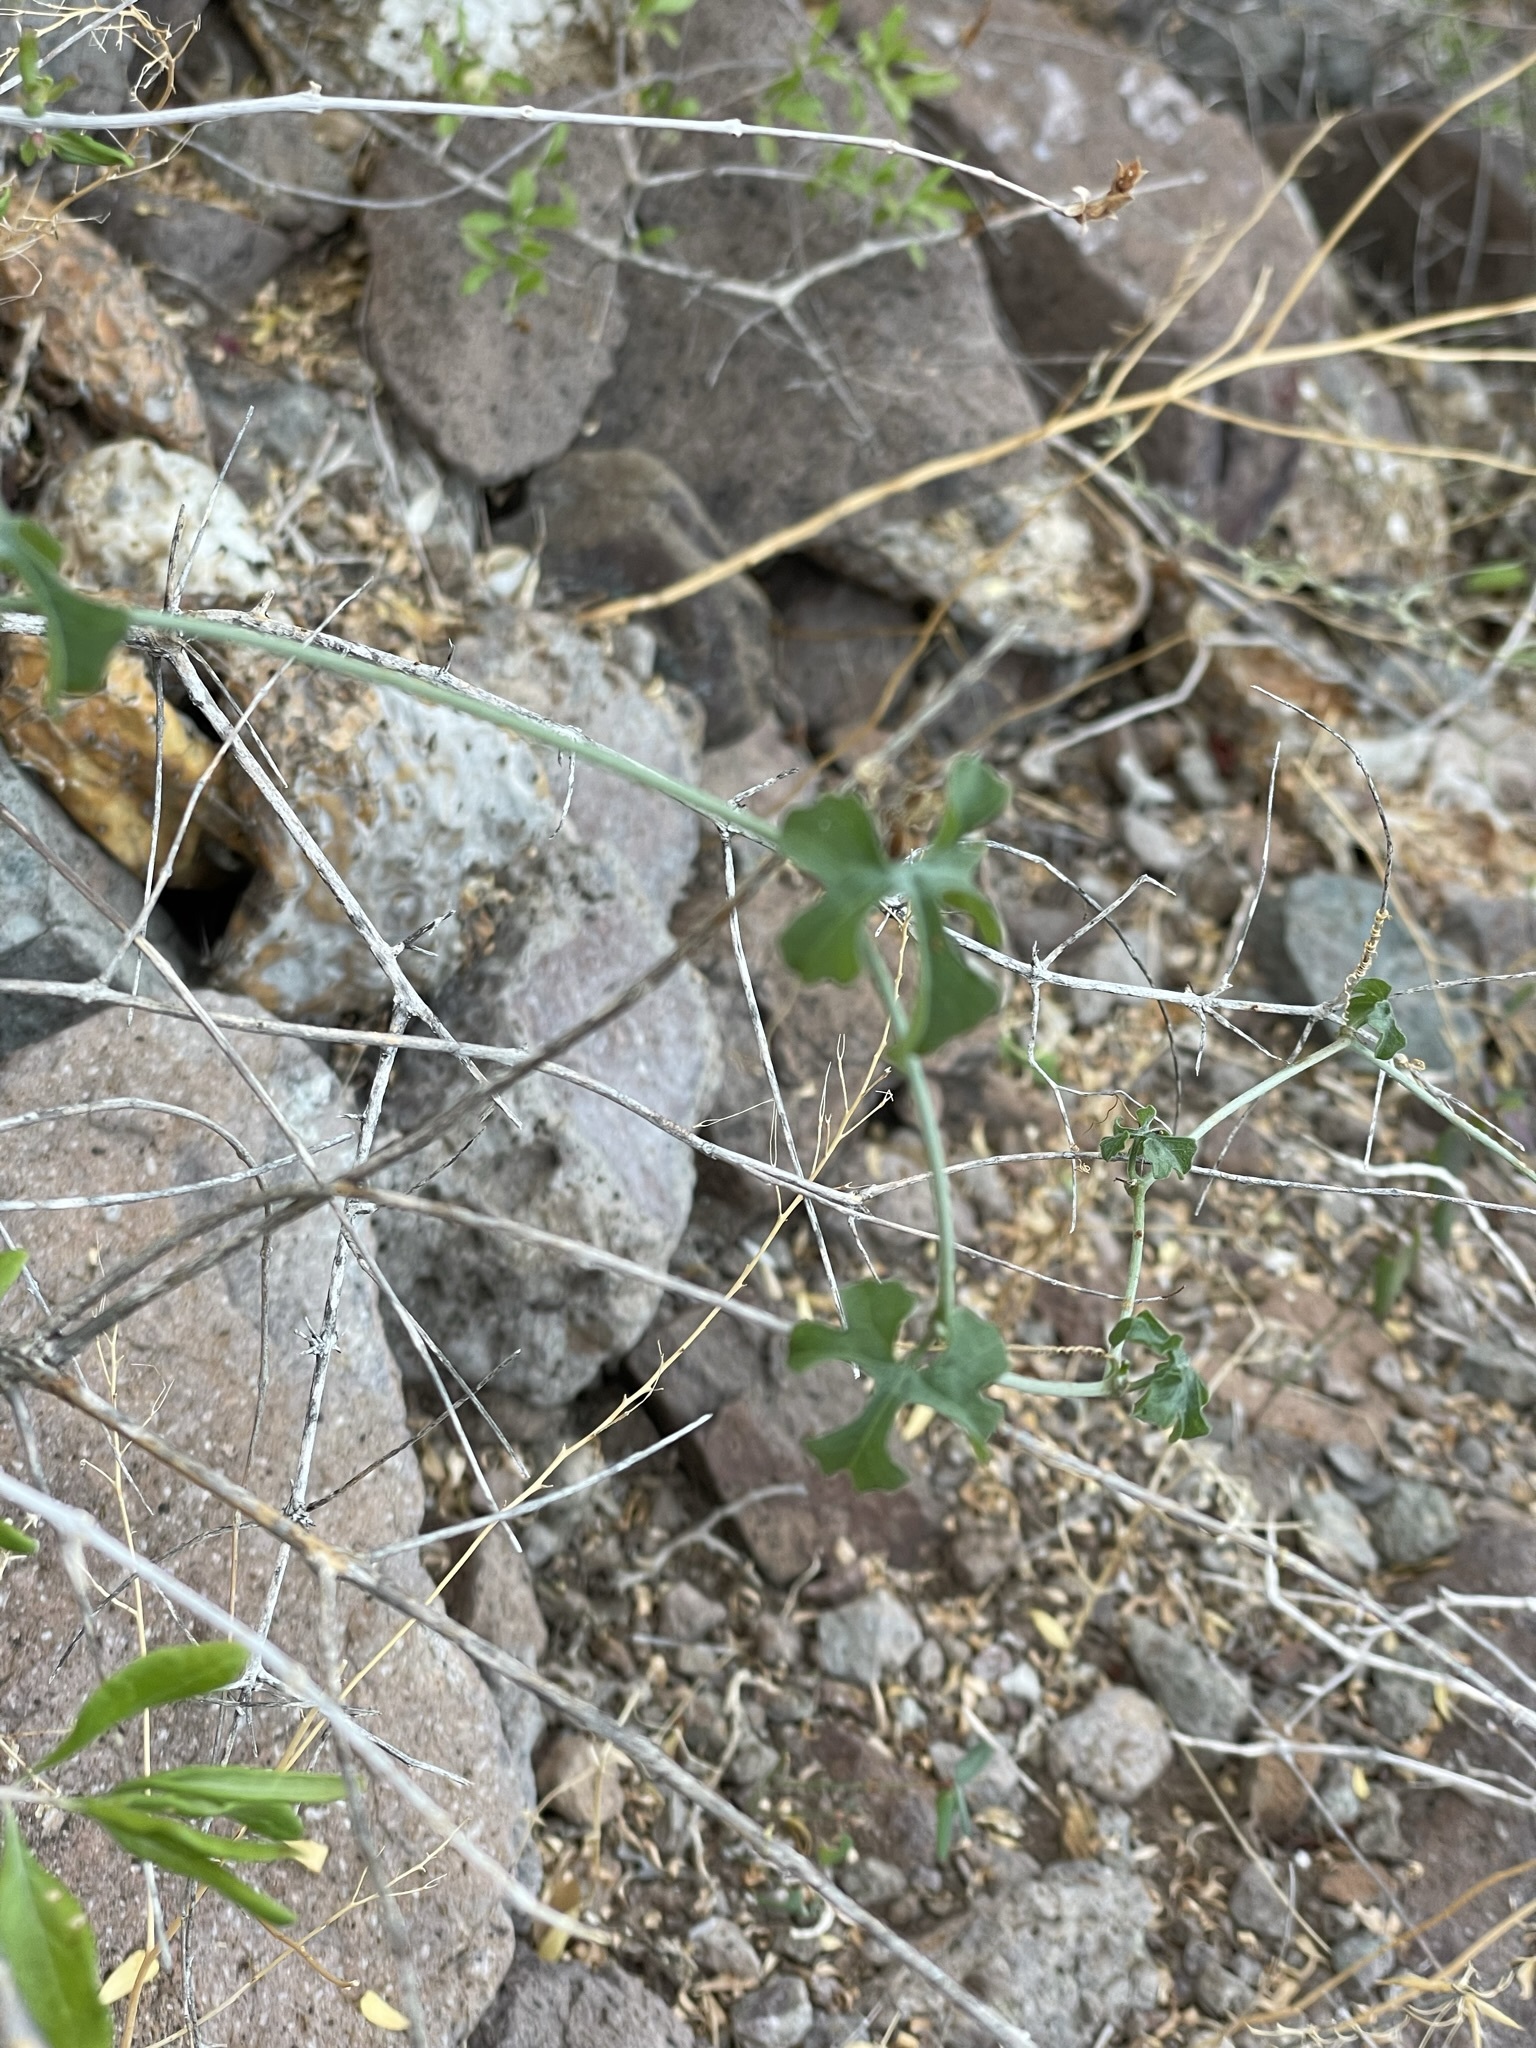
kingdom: Plantae
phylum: Tracheophyta
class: Magnoliopsida
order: Cucurbitales
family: Cucurbitaceae
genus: Ibervillea
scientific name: Ibervillea sonorae
